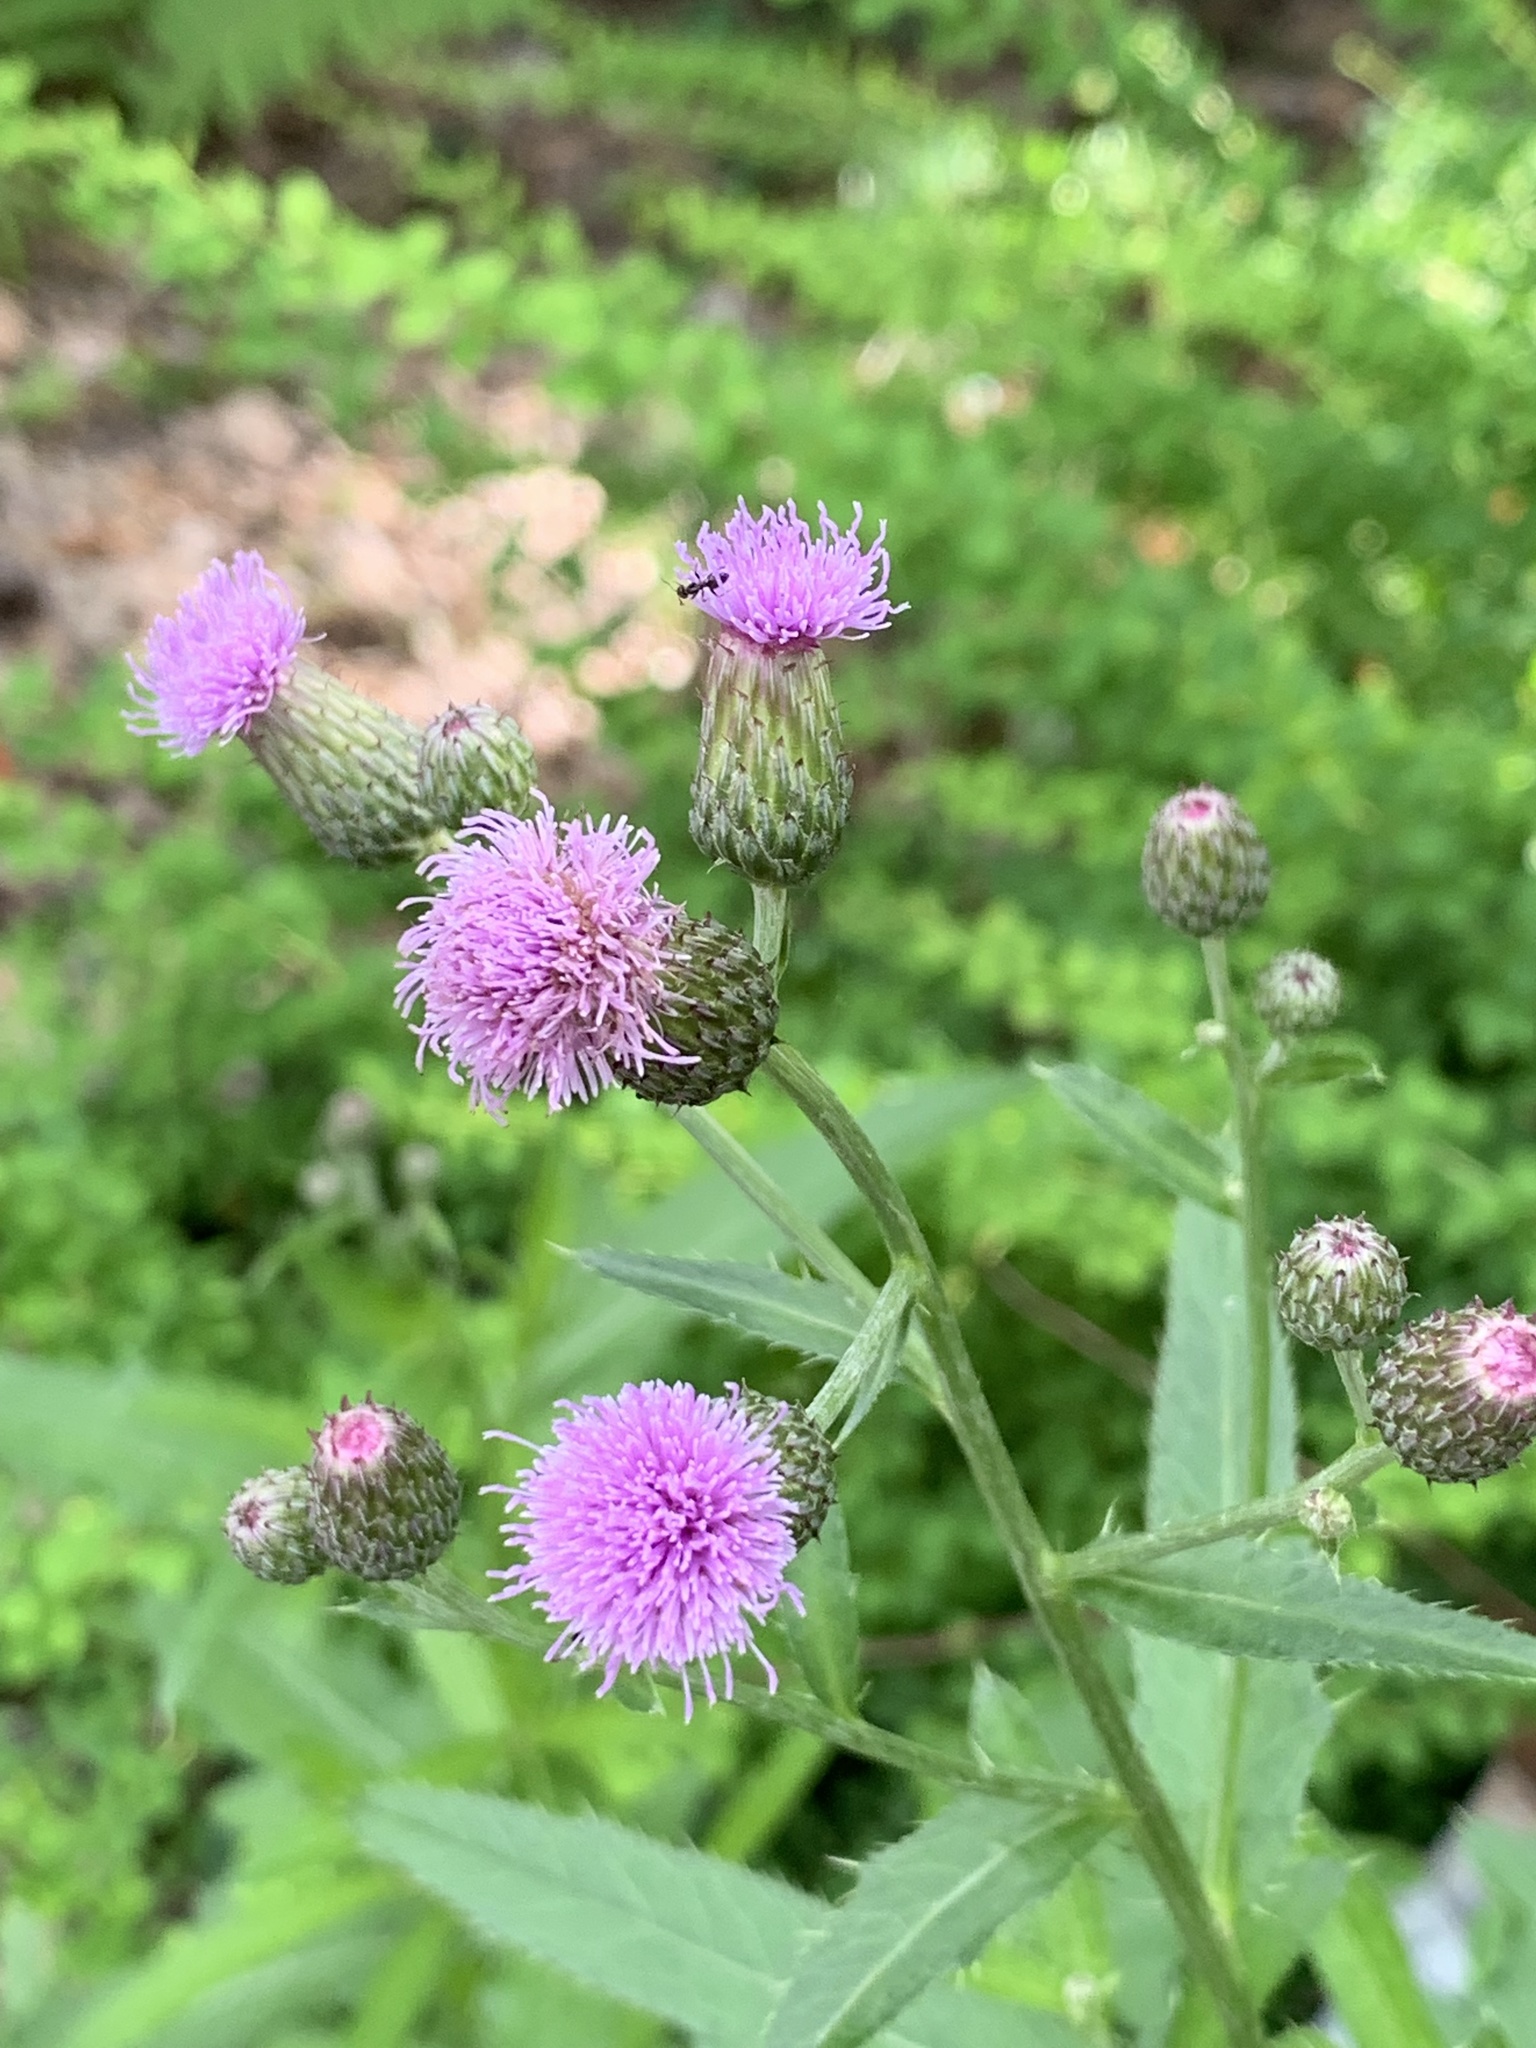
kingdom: Plantae
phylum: Tracheophyta
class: Magnoliopsida
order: Asterales
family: Asteraceae
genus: Cirsium
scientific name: Cirsium arvense
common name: Creeping thistle
